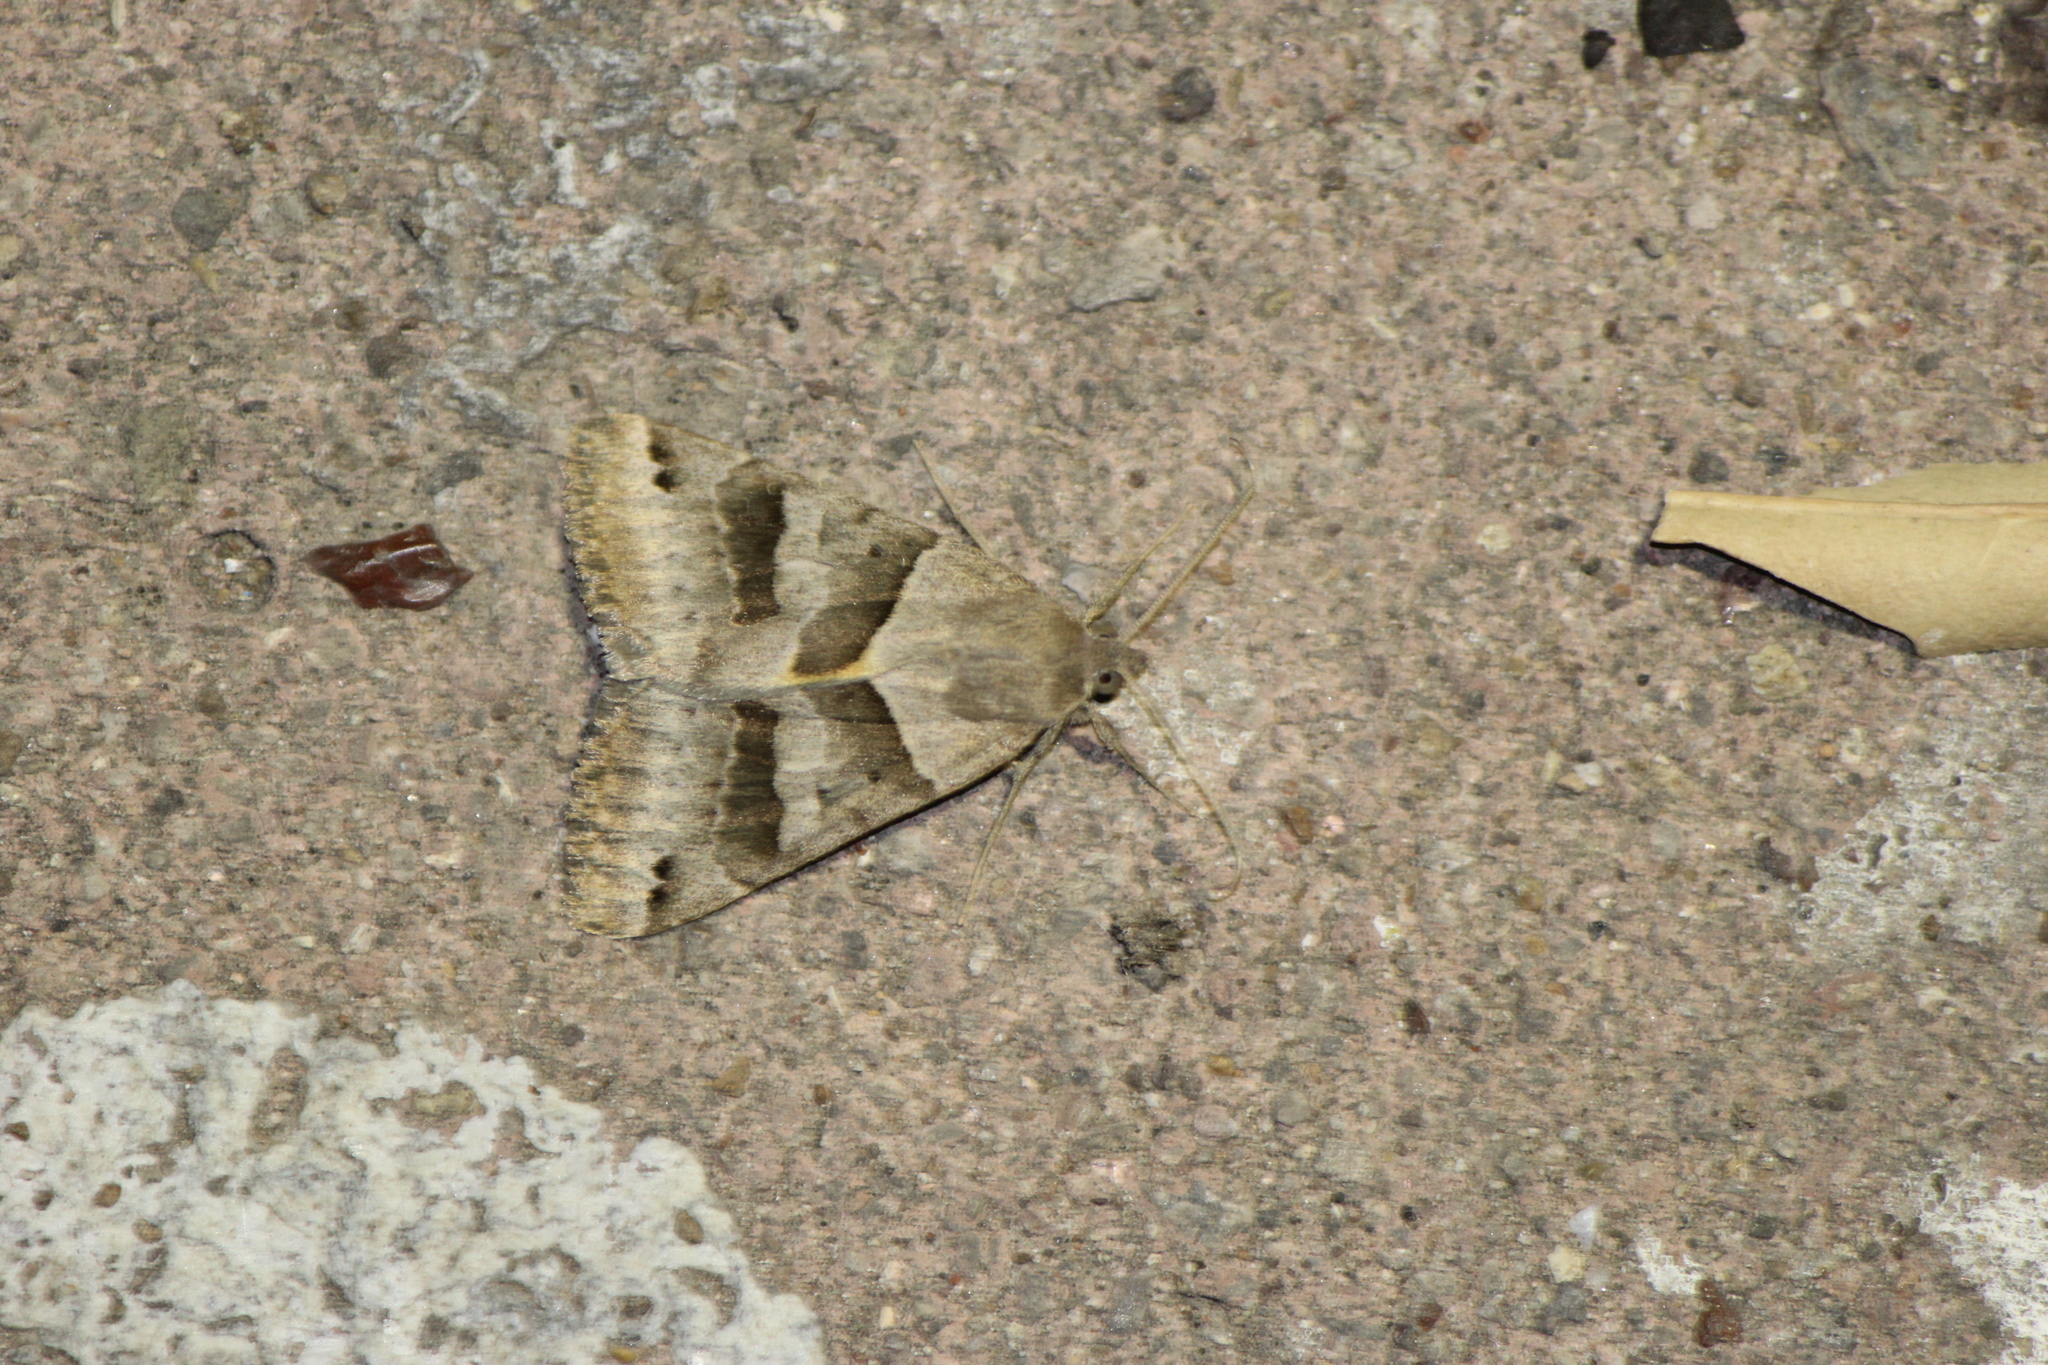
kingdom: Animalia
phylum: Arthropoda
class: Insecta
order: Lepidoptera
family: Erebidae
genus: Caenurgina
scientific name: Caenurgina erechtea
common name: Forage looper moth
